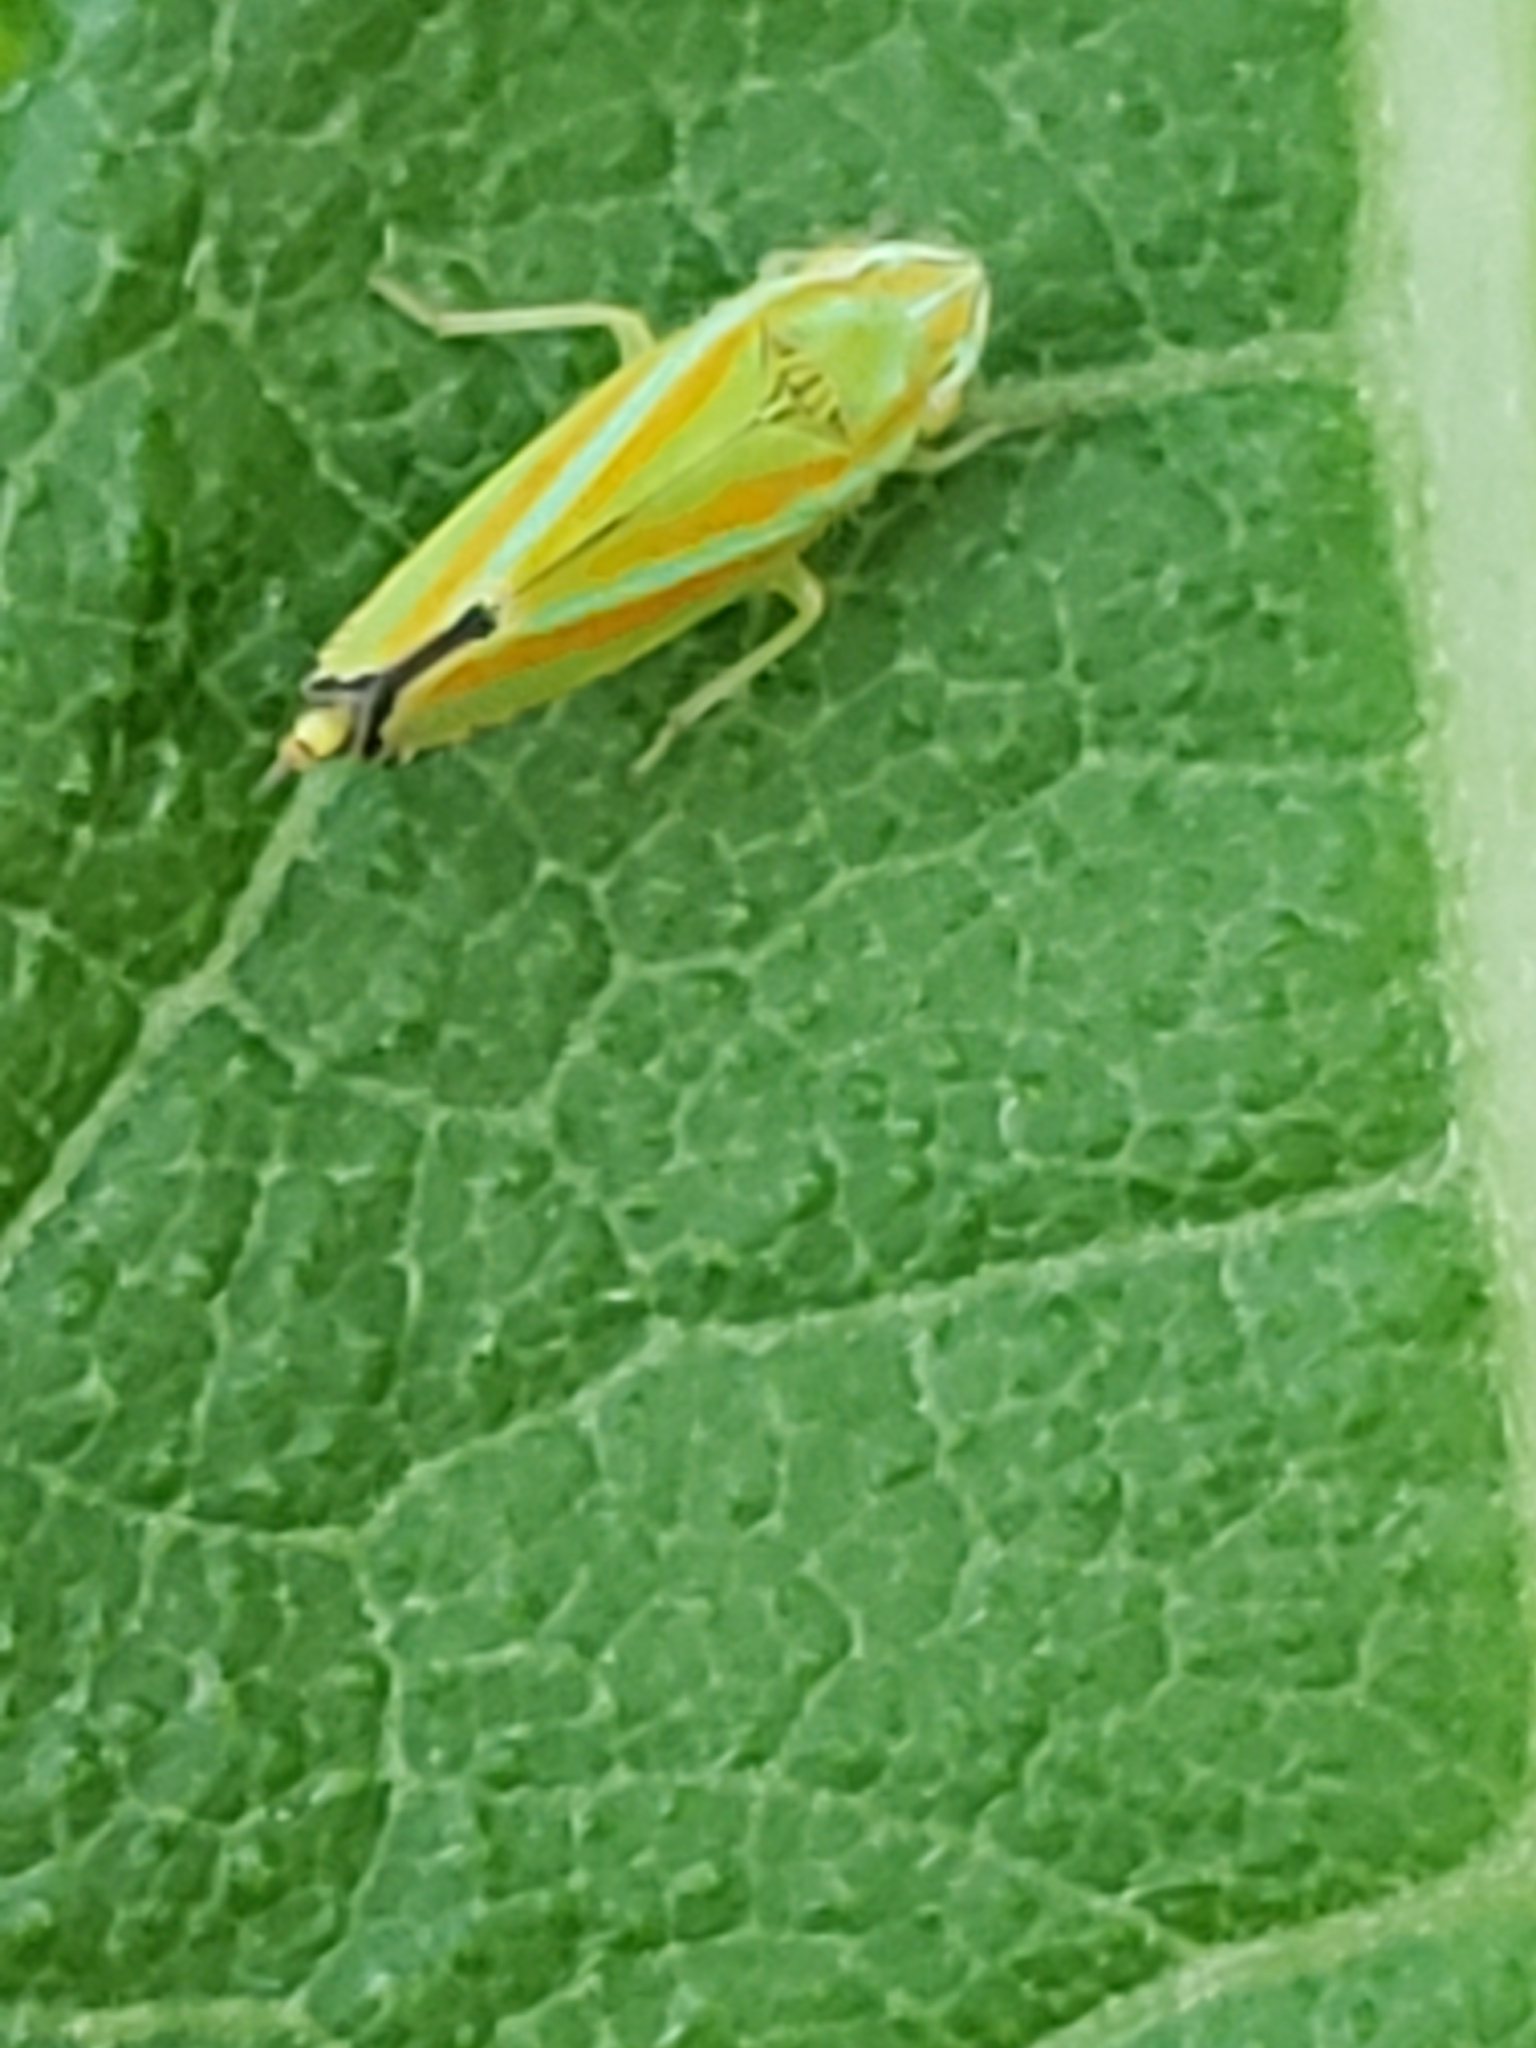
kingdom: Animalia
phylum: Arthropoda
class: Insecta
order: Hemiptera
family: Cicadellidae
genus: Graphocephala
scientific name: Graphocephala versuta
